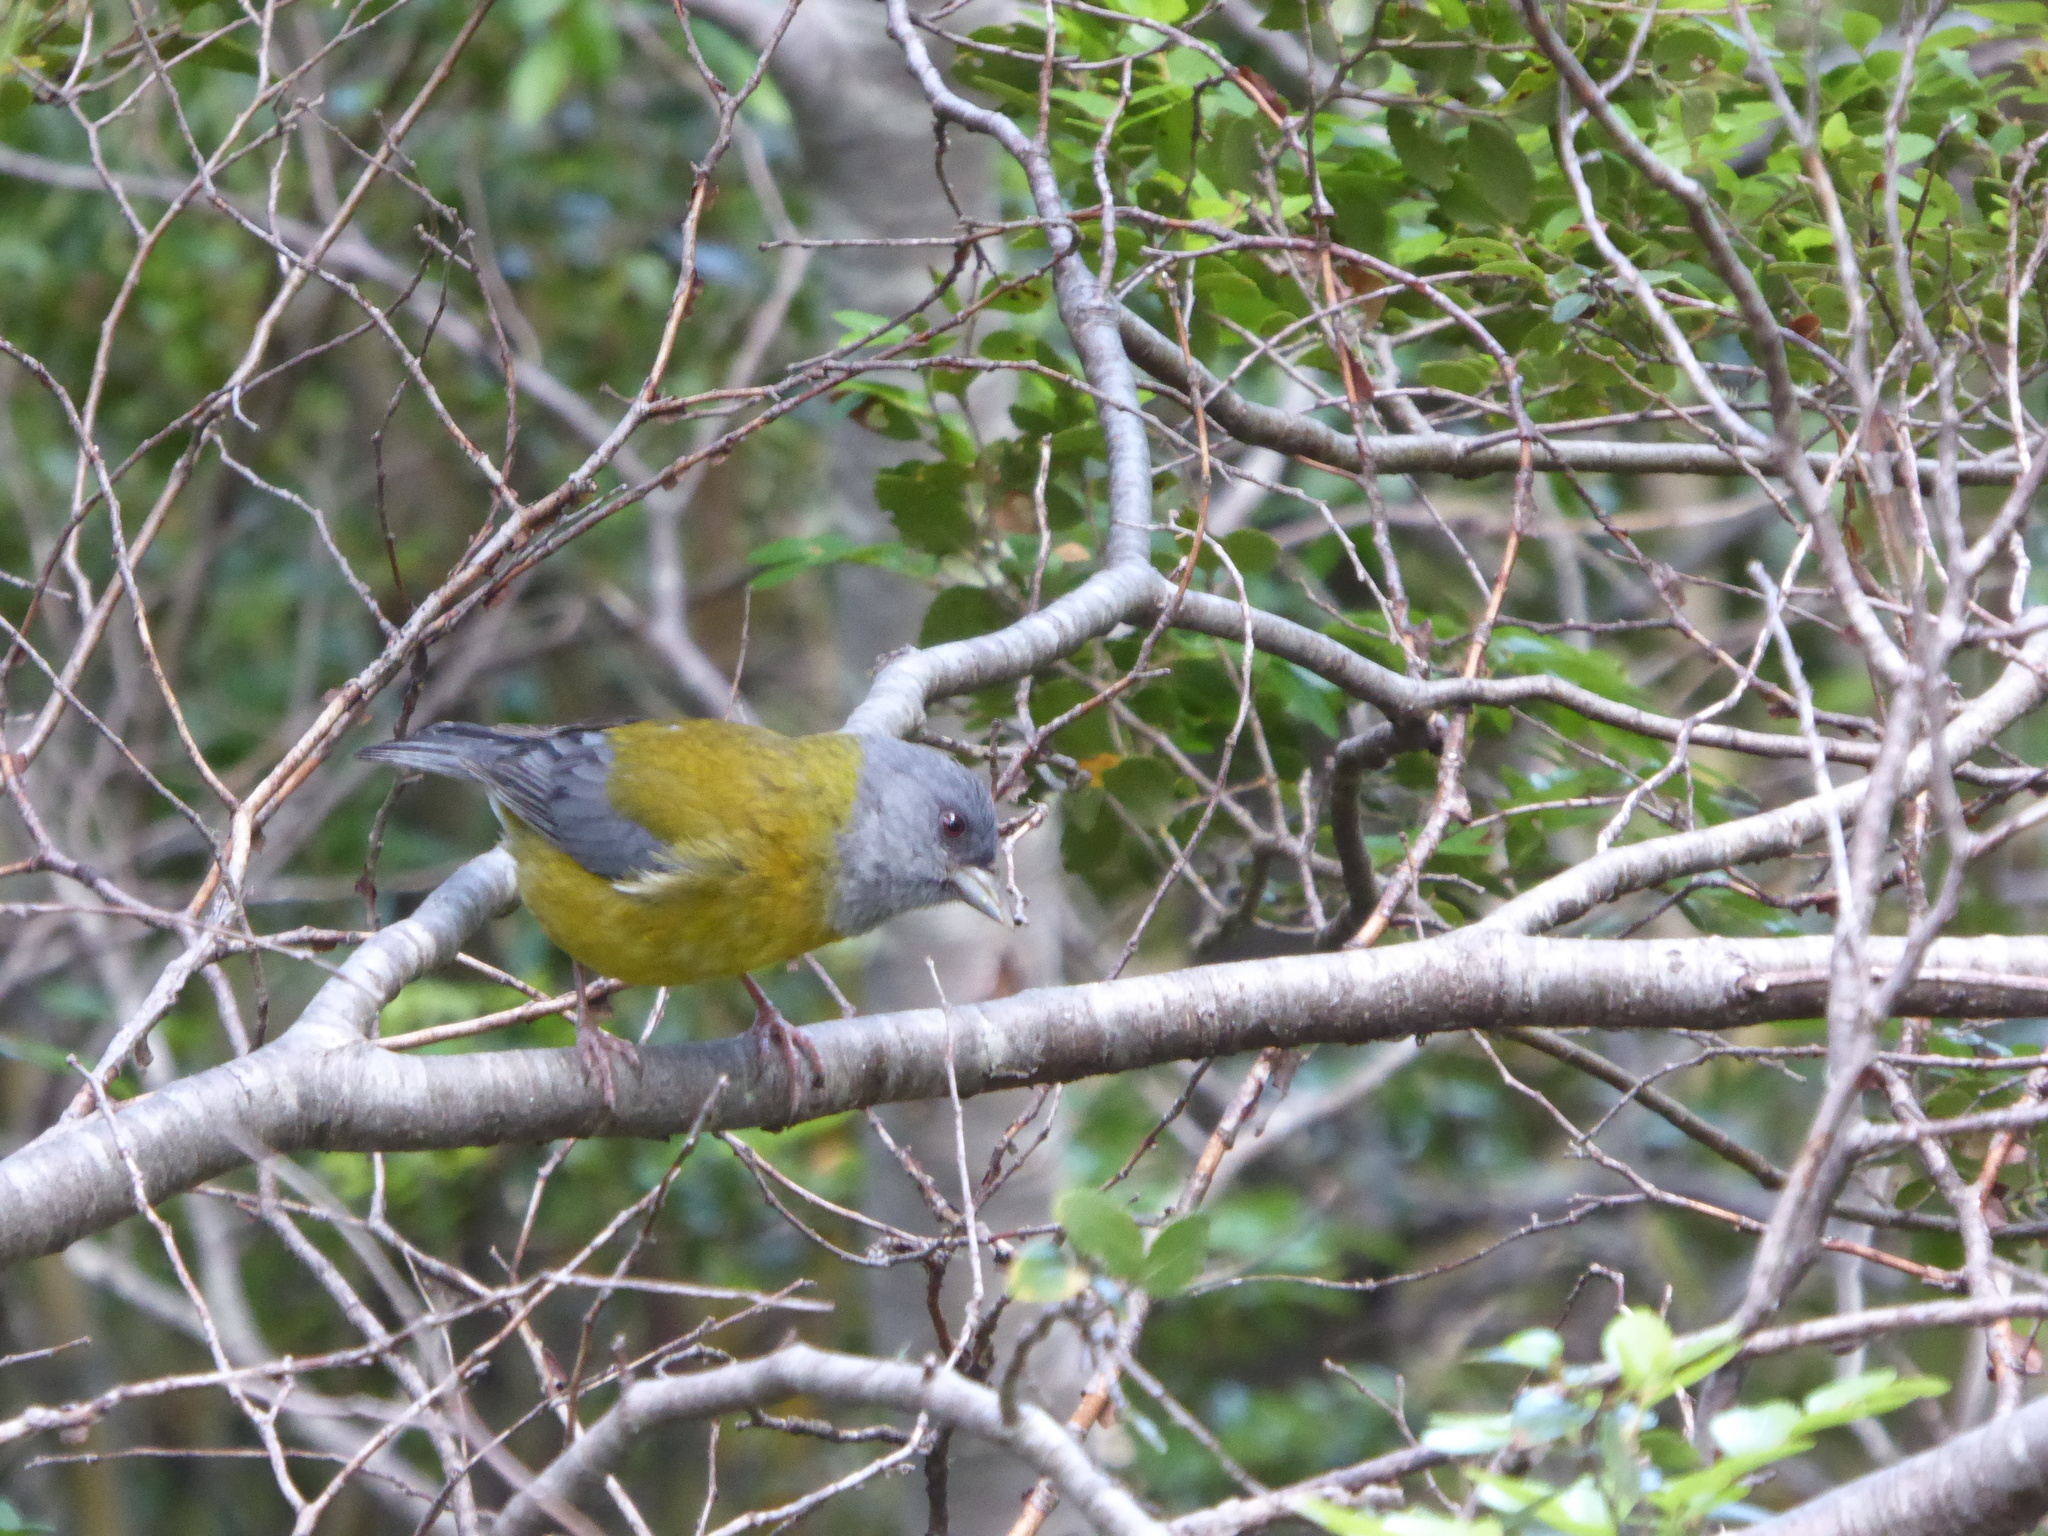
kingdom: Animalia
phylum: Chordata
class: Aves
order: Passeriformes
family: Thraupidae
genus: Phrygilus
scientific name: Phrygilus patagonicus
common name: Patagonian sierra finch
